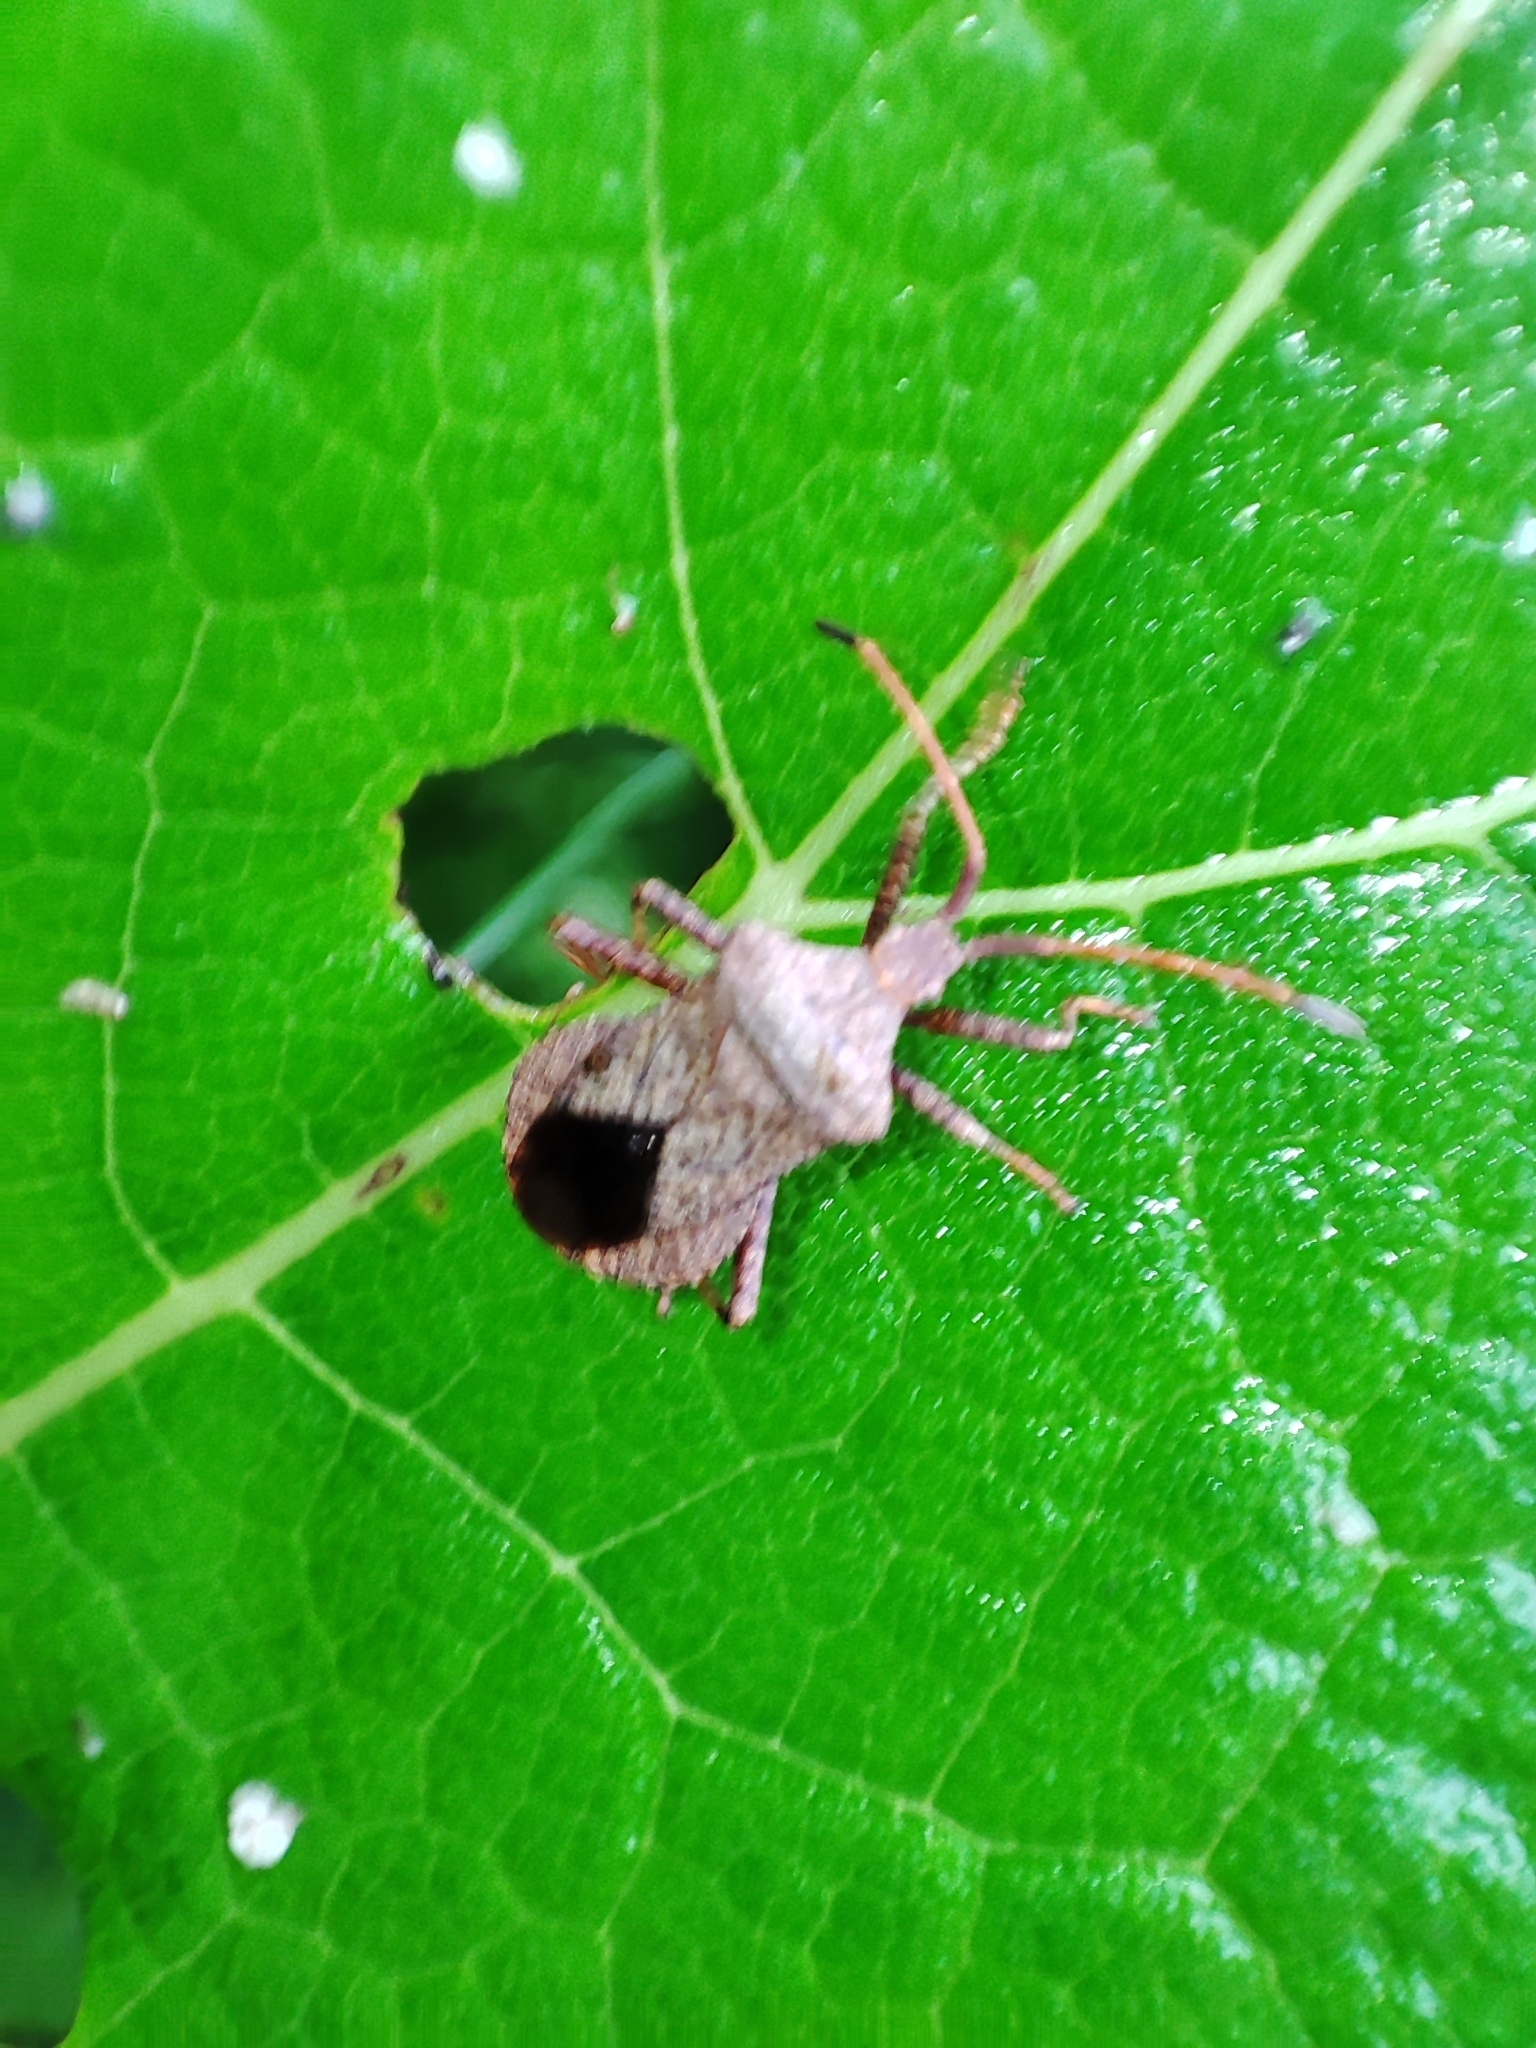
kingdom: Animalia
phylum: Arthropoda
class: Insecta
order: Hemiptera
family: Coreidae
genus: Coreus
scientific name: Coreus marginatus
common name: Dock bug
